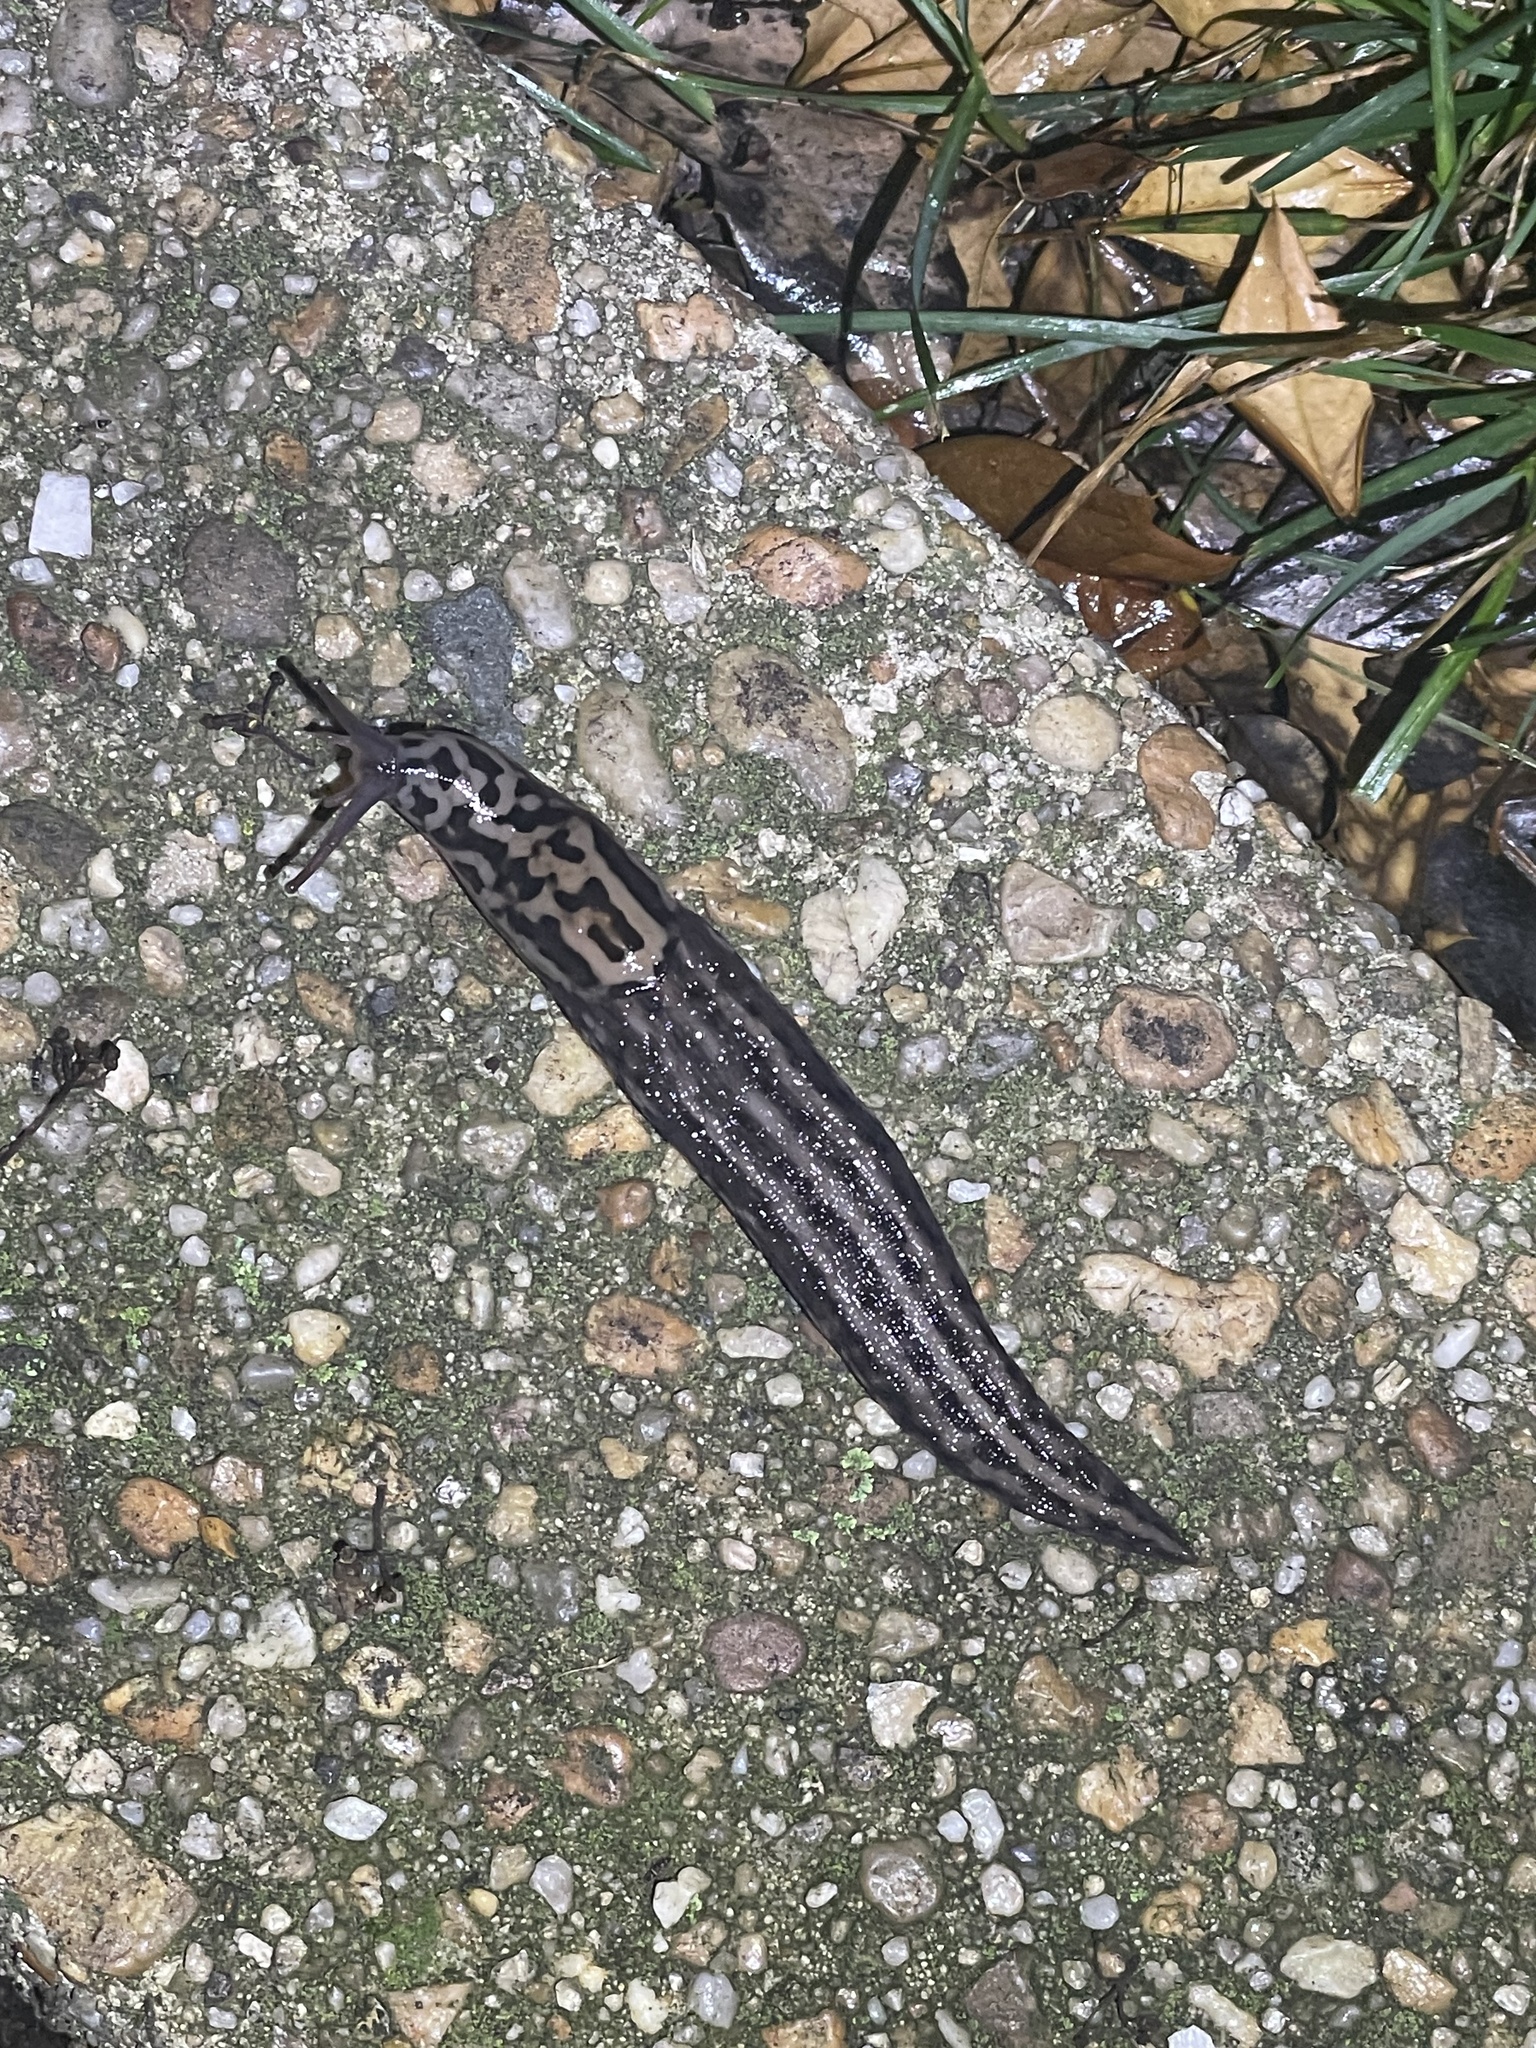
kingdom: Animalia
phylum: Mollusca
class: Gastropoda
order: Stylommatophora
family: Limacidae
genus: Limax
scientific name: Limax maximus
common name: Great grey slug
